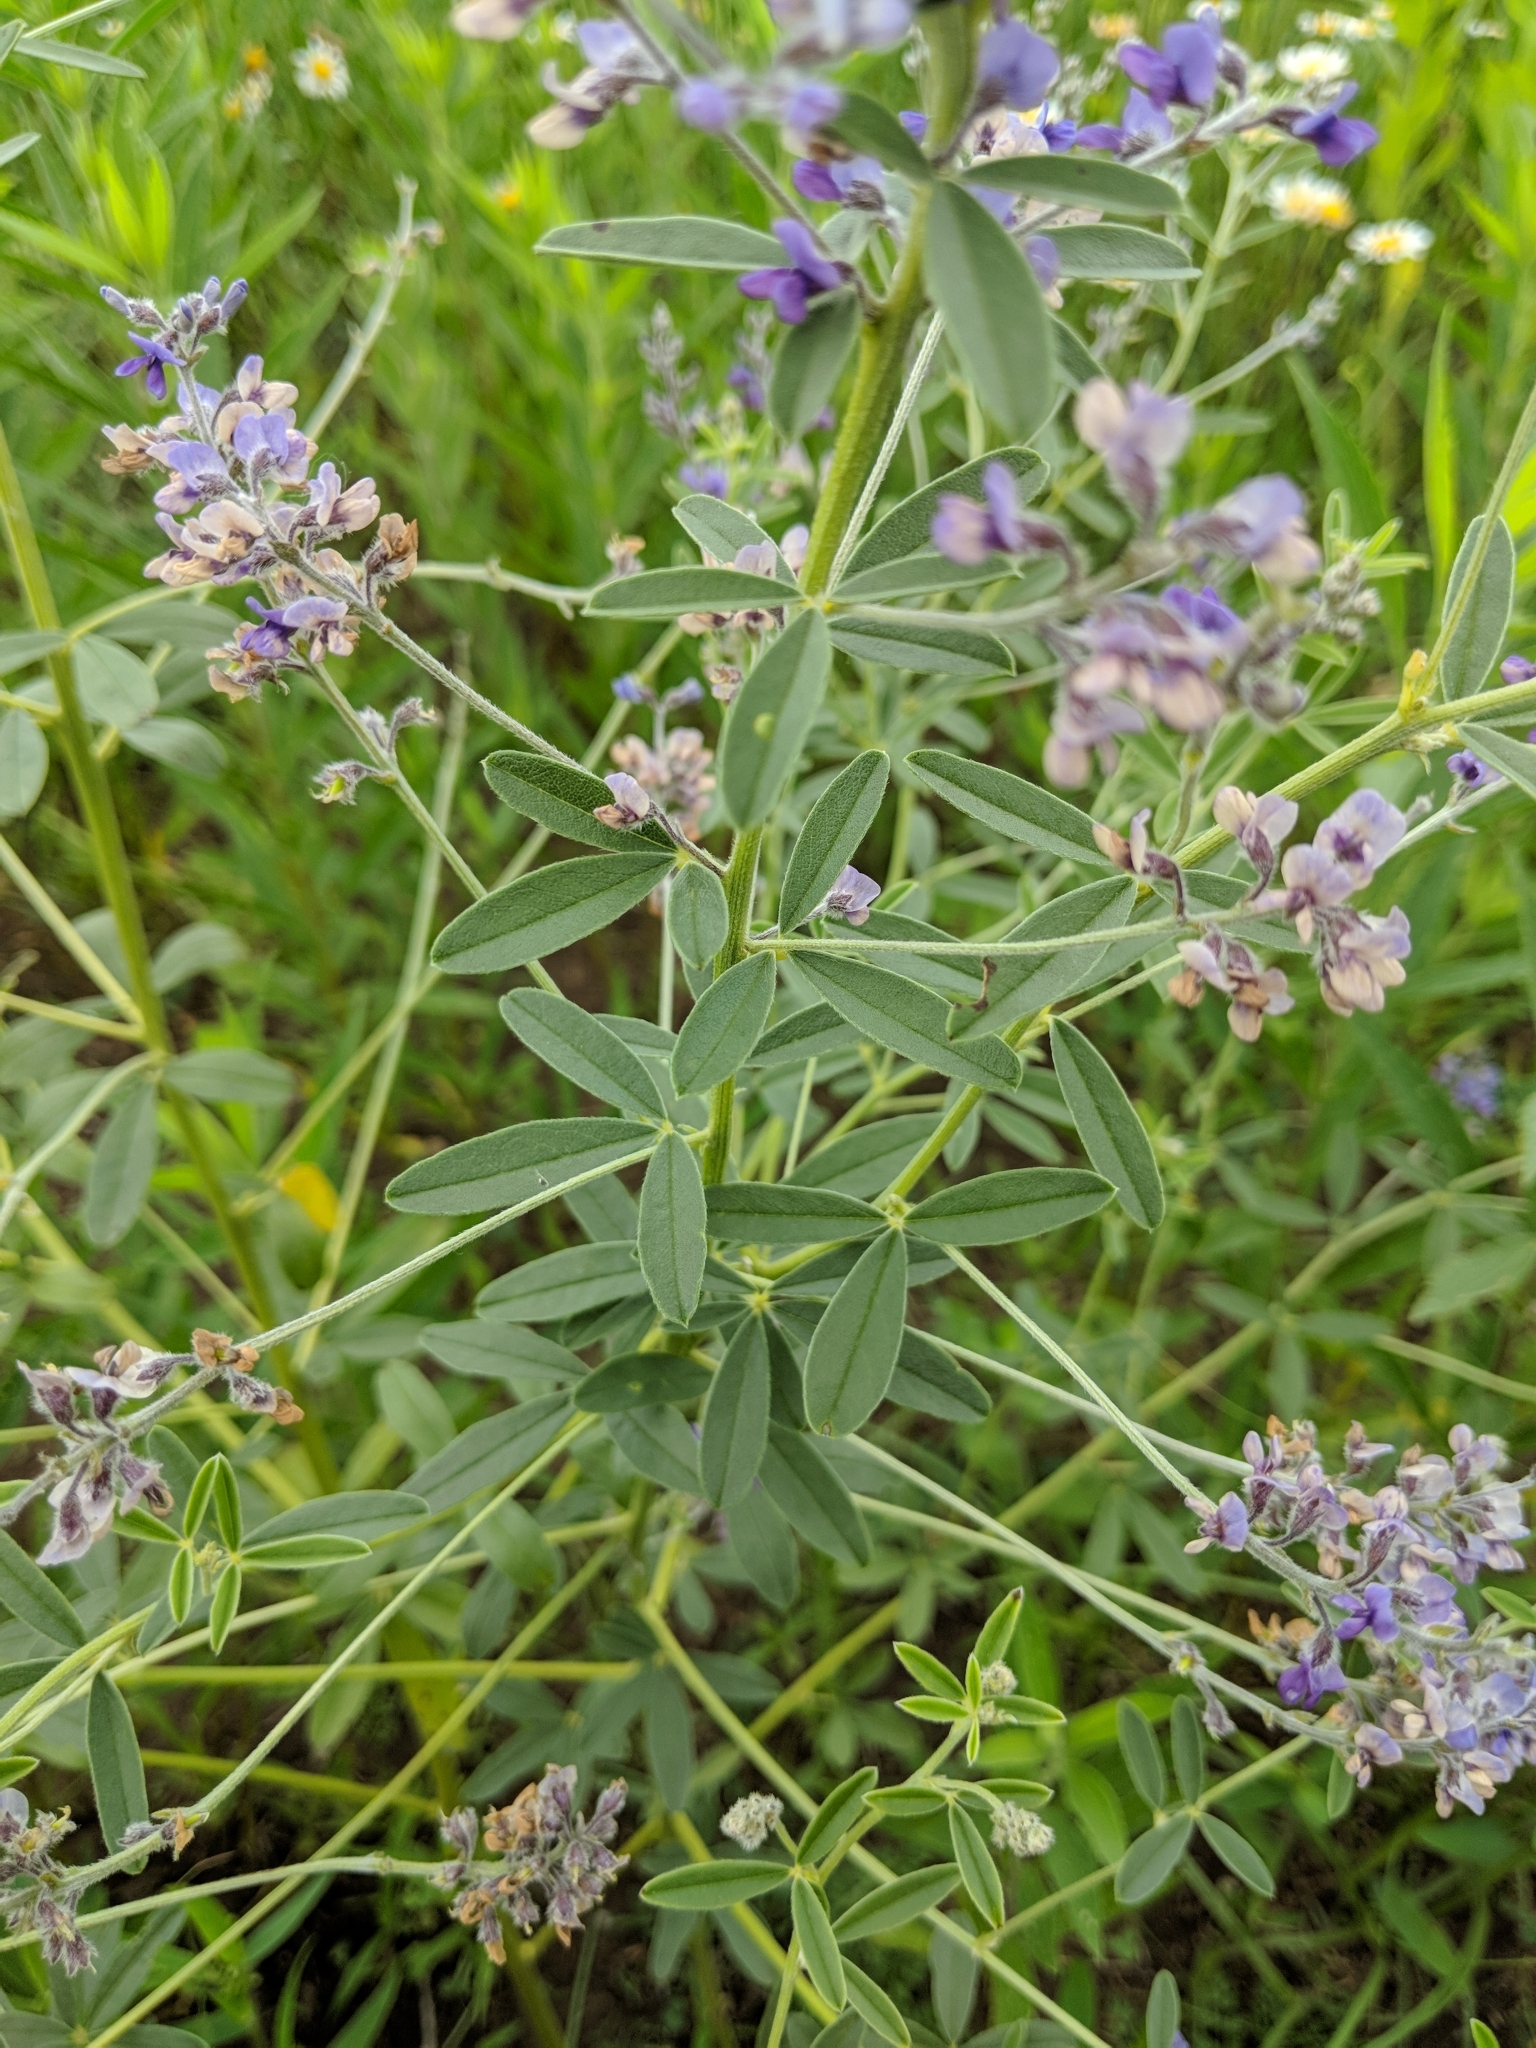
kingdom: Plantae
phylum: Tracheophyta
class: Magnoliopsida
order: Fabales
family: Fabaceae
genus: Pediomelum
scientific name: Pediomelum tenuiflorum
